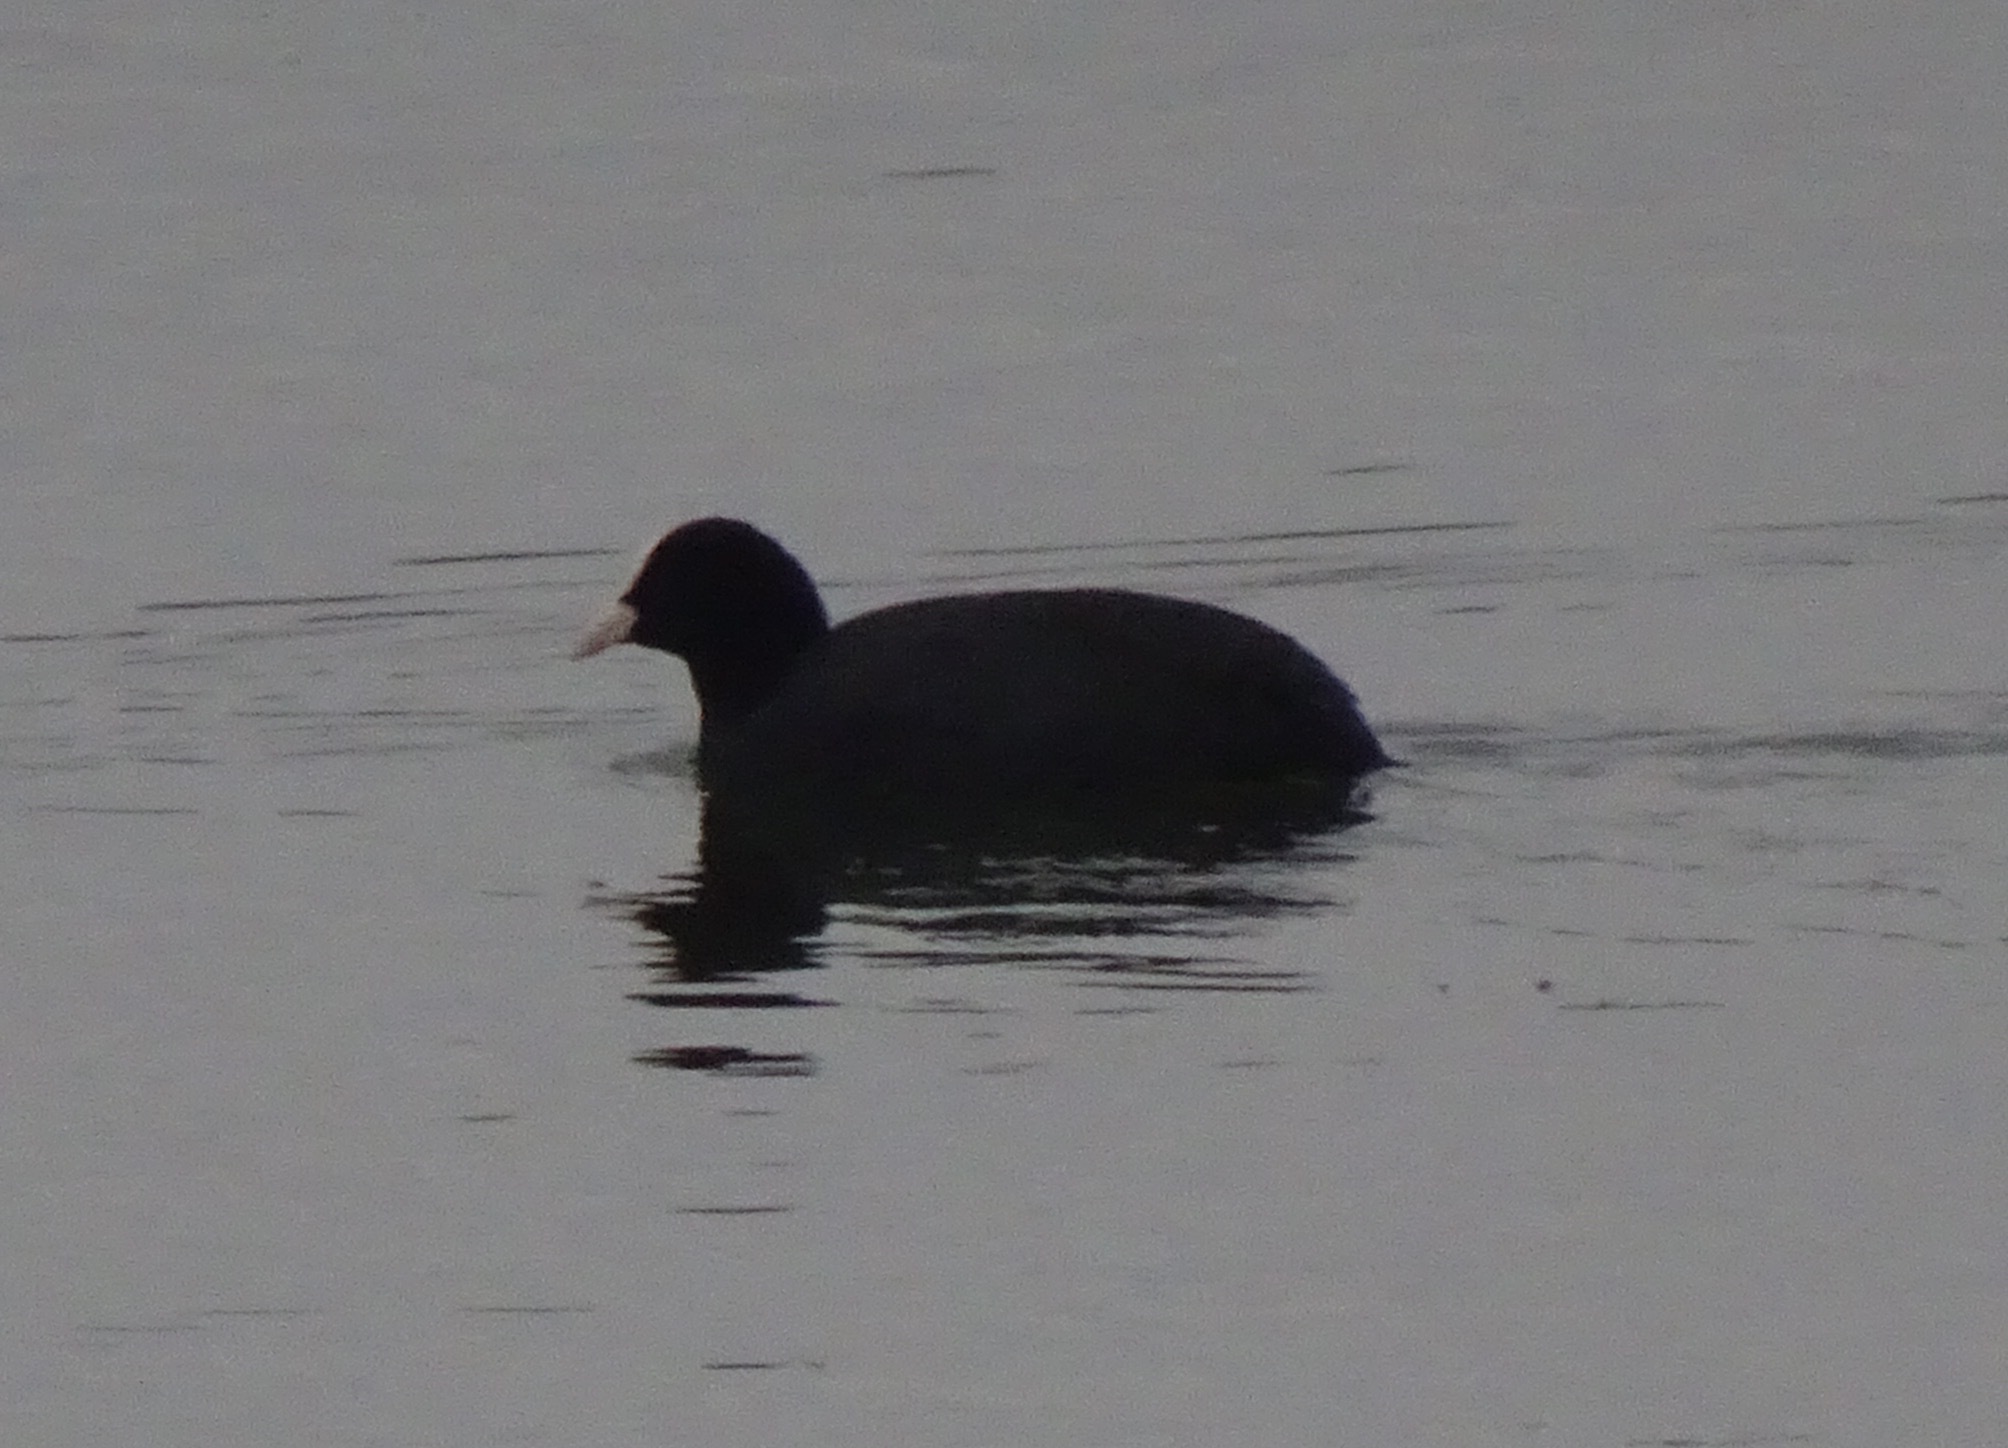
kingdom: Animalia
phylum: Chordata
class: Aves
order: Gruiformes
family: Rallidae
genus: Fulica
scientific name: Fulica atra
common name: Eurasian coot
